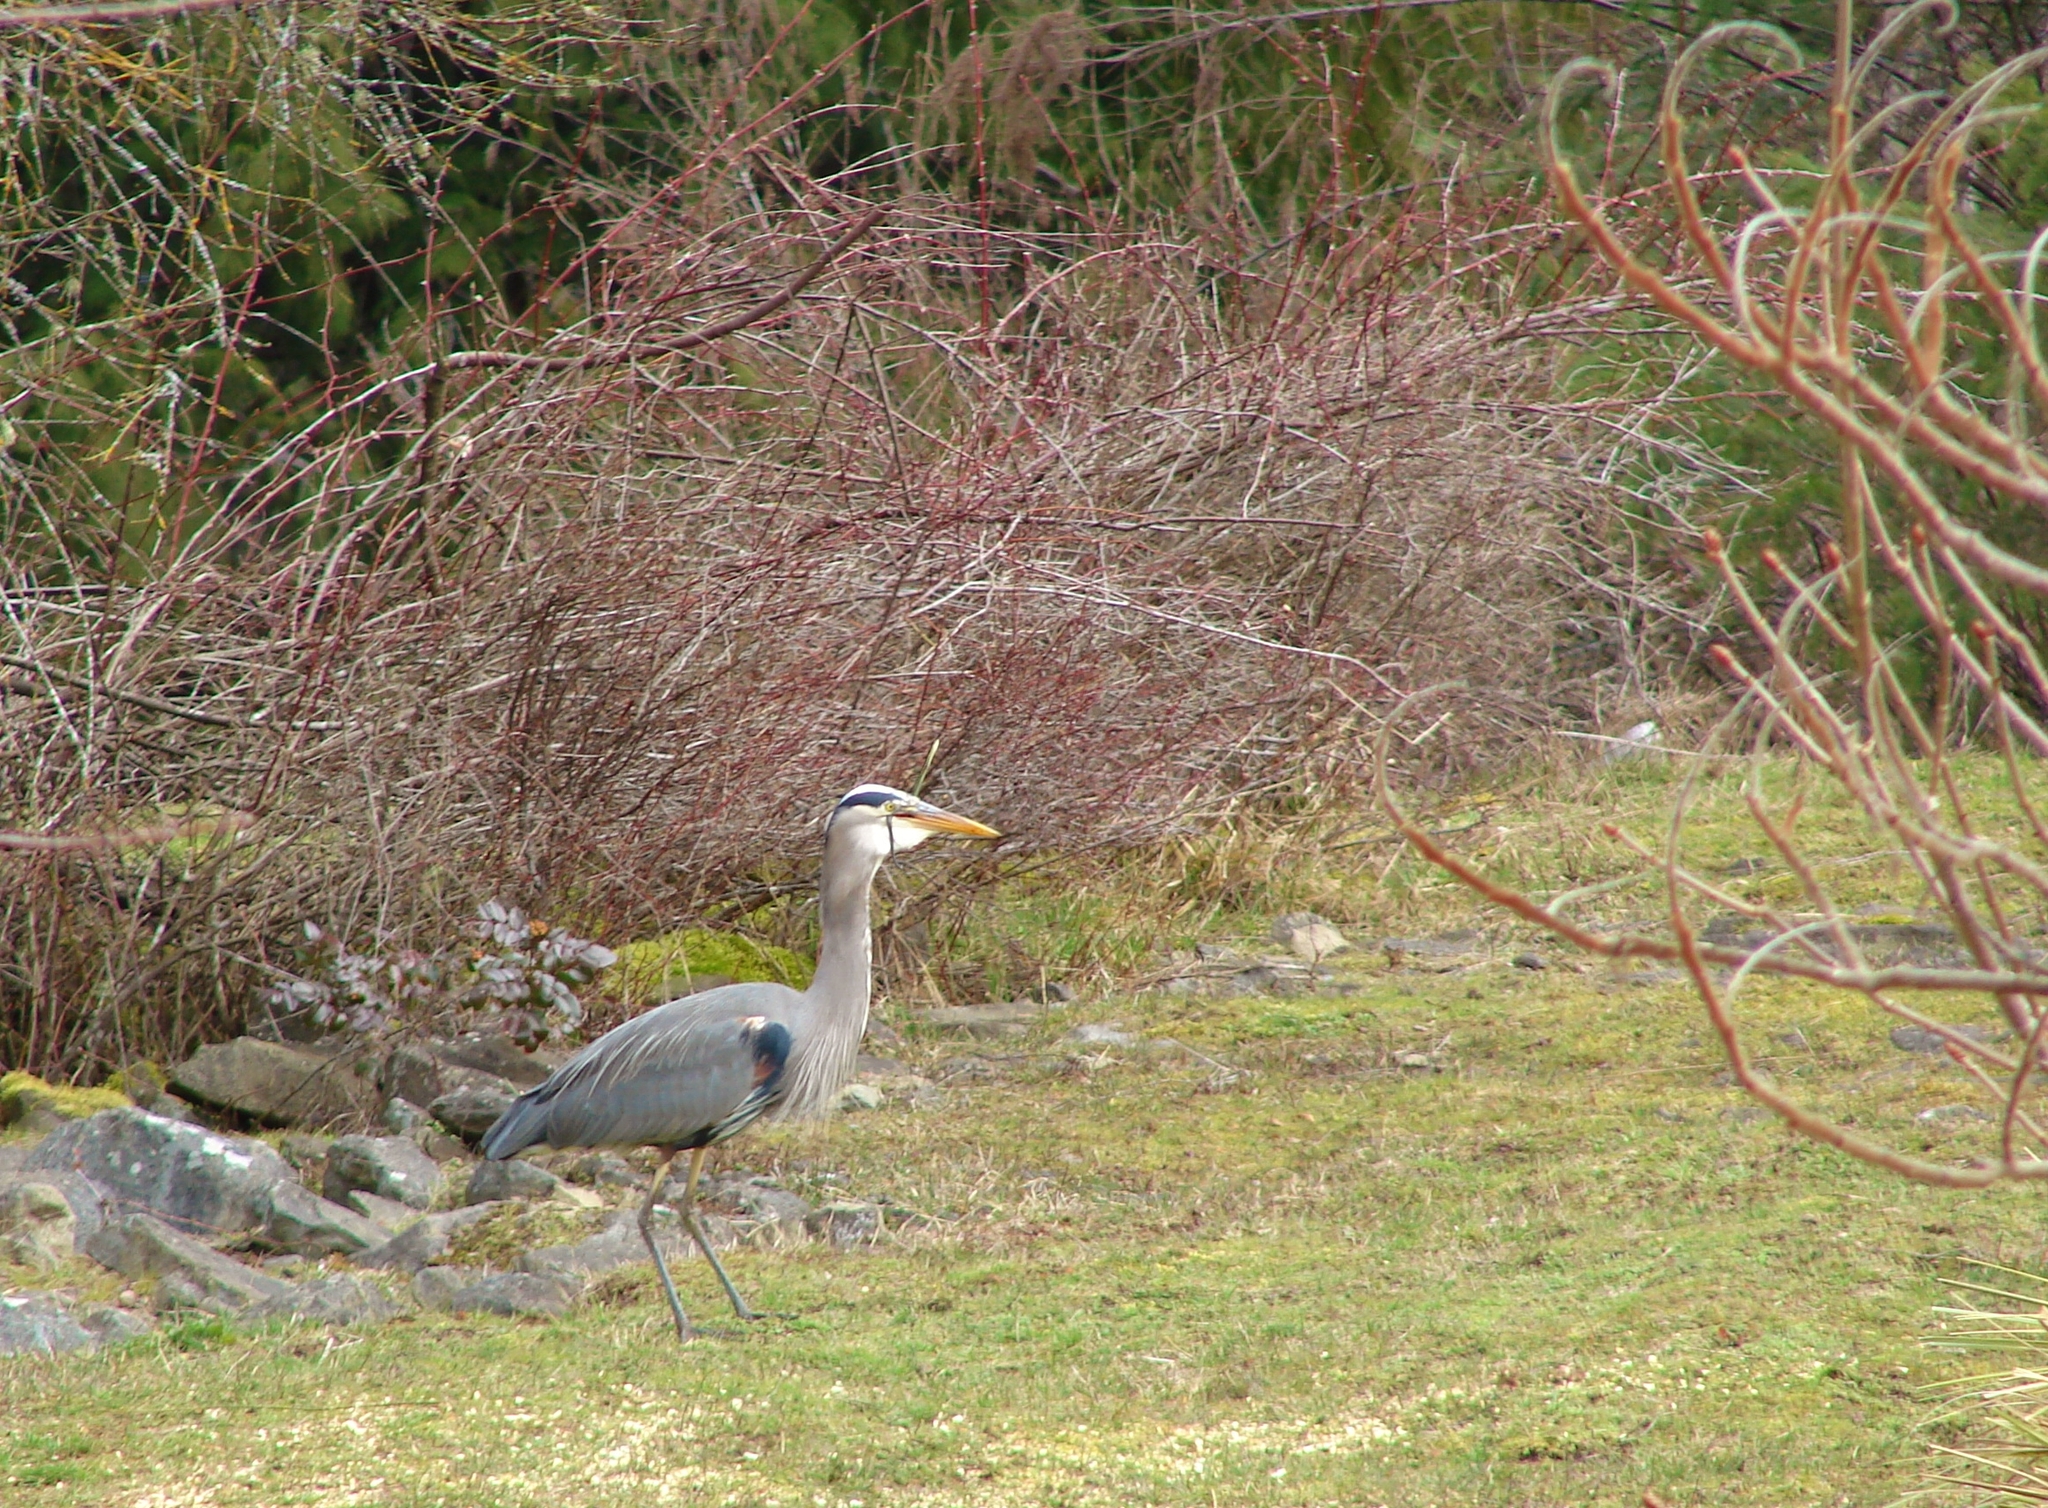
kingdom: Animalia
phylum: Chordata
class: Squamata
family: Colubridae
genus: Thamnophis
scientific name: Thamnophis sirtalis
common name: Common garter snake
